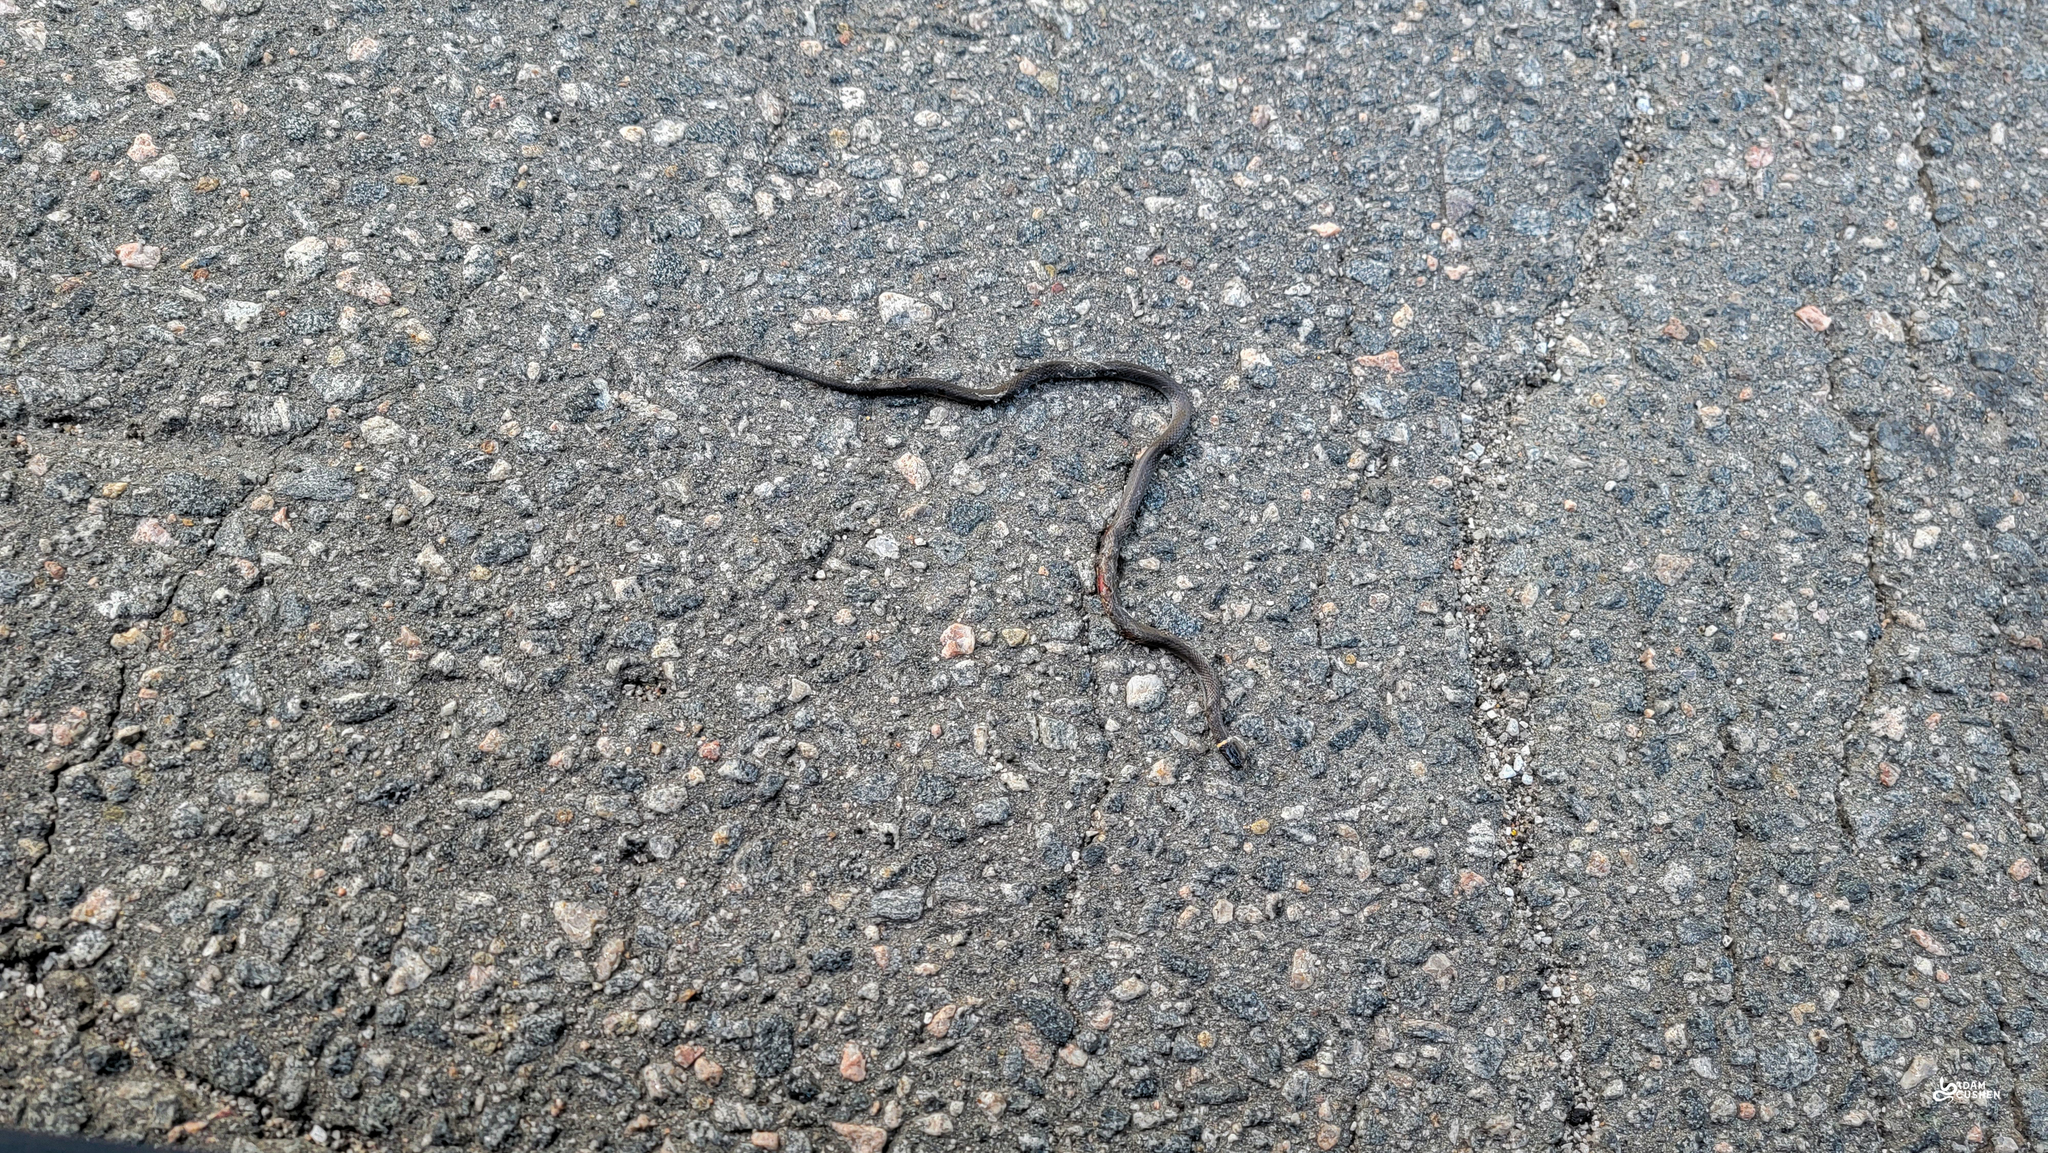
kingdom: Animalia
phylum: Chordata
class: Squamata
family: Colubridae
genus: Diadophis
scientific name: Diadophis punctatus
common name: Ringneck snake
